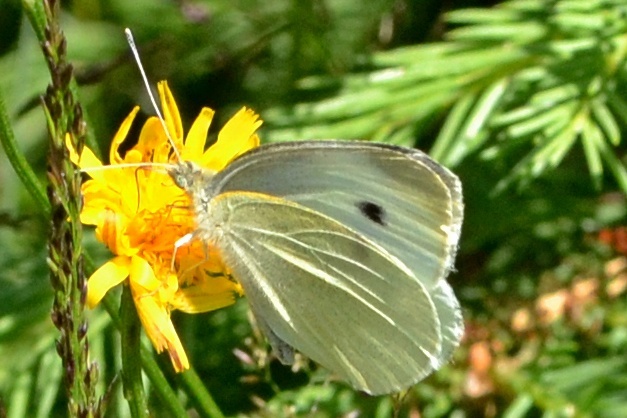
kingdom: Animalia
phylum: Arthropoda
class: Insecta
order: Lepidoptera
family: Pieridae
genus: Pieris
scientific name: Pieris rapae
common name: Small white
